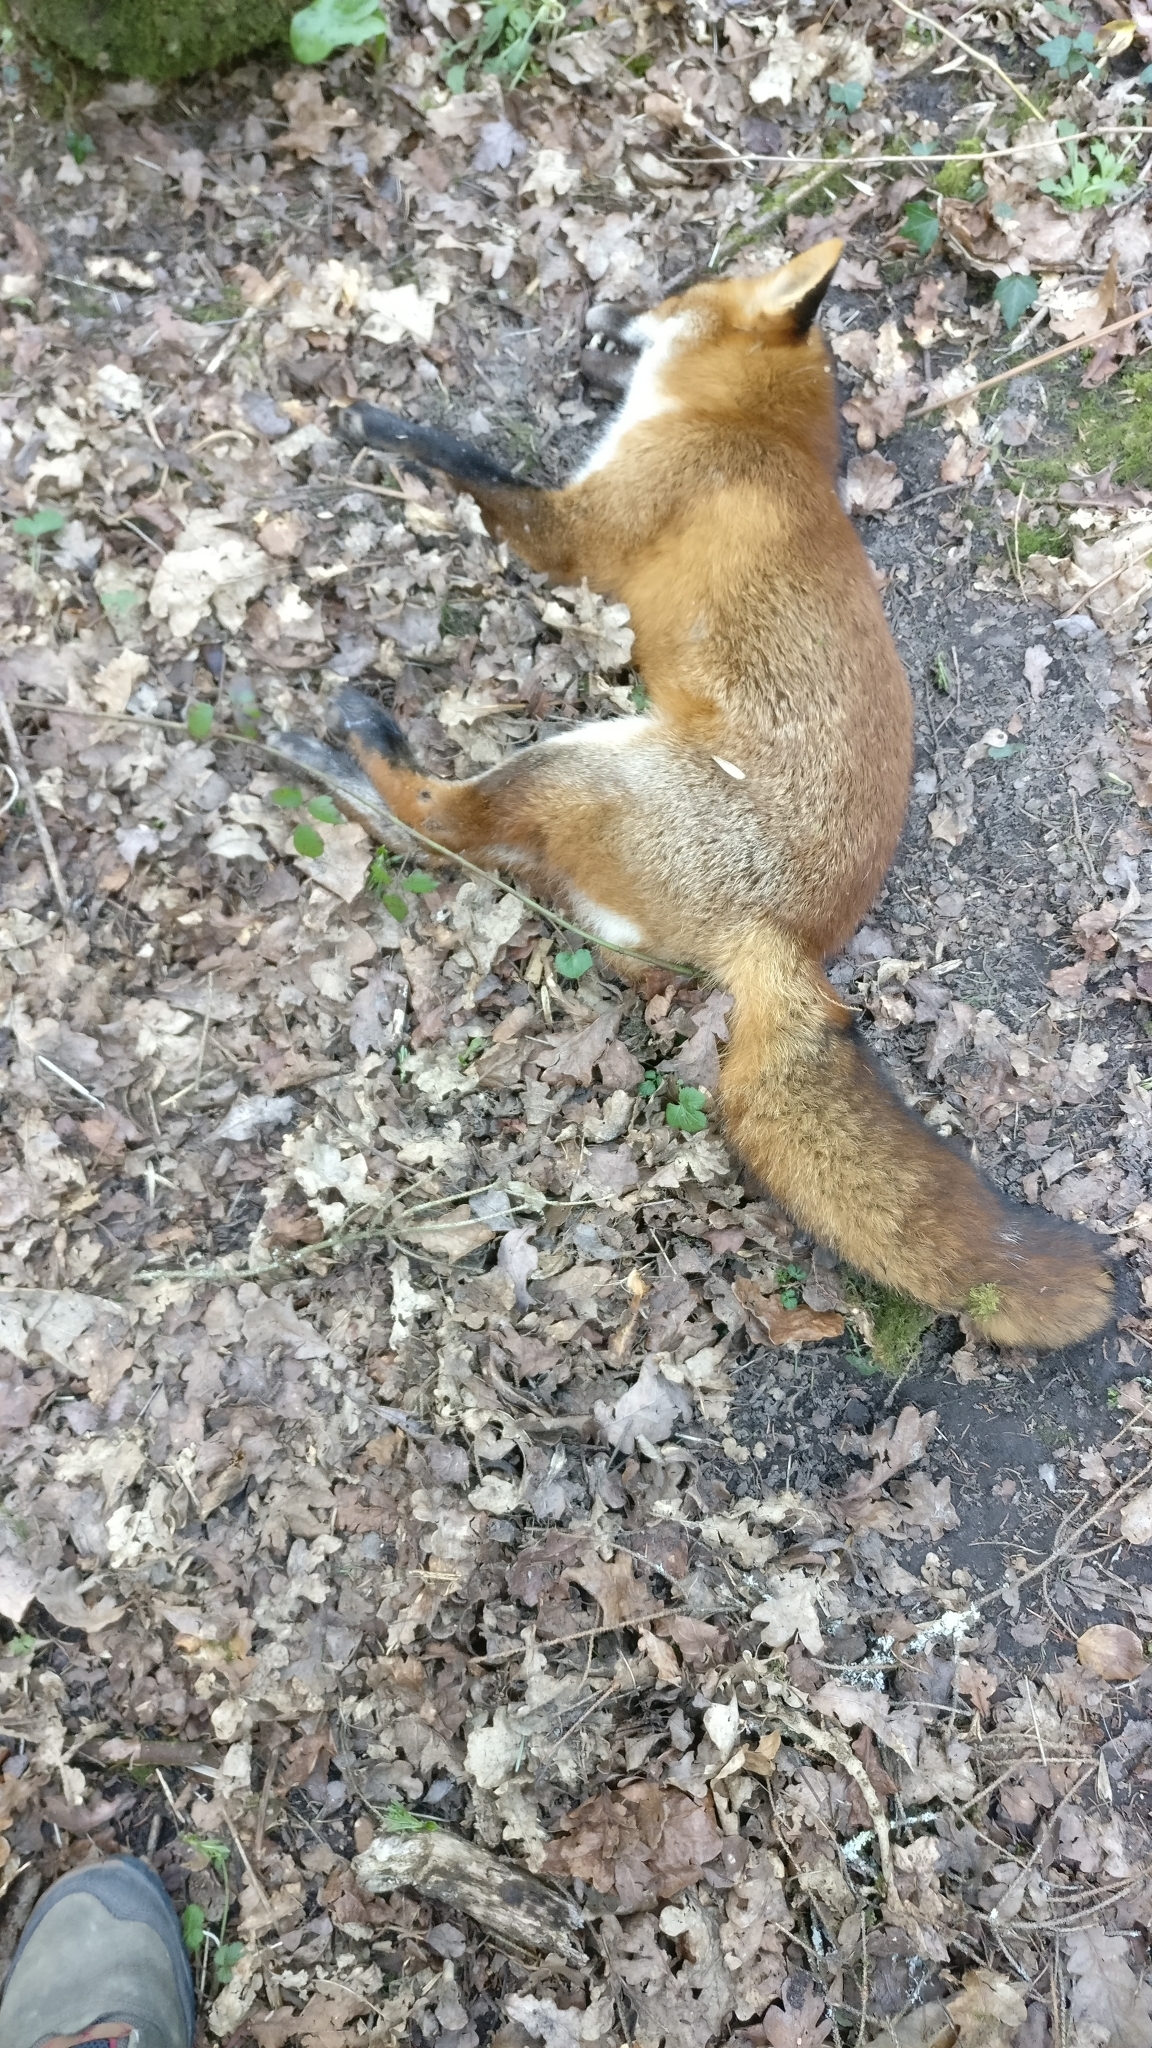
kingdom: Animalia
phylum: Chordata
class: Mammalia
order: Carnivora
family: Canidae
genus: Vulpes
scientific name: Vulpes vulpes
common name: Red fox
